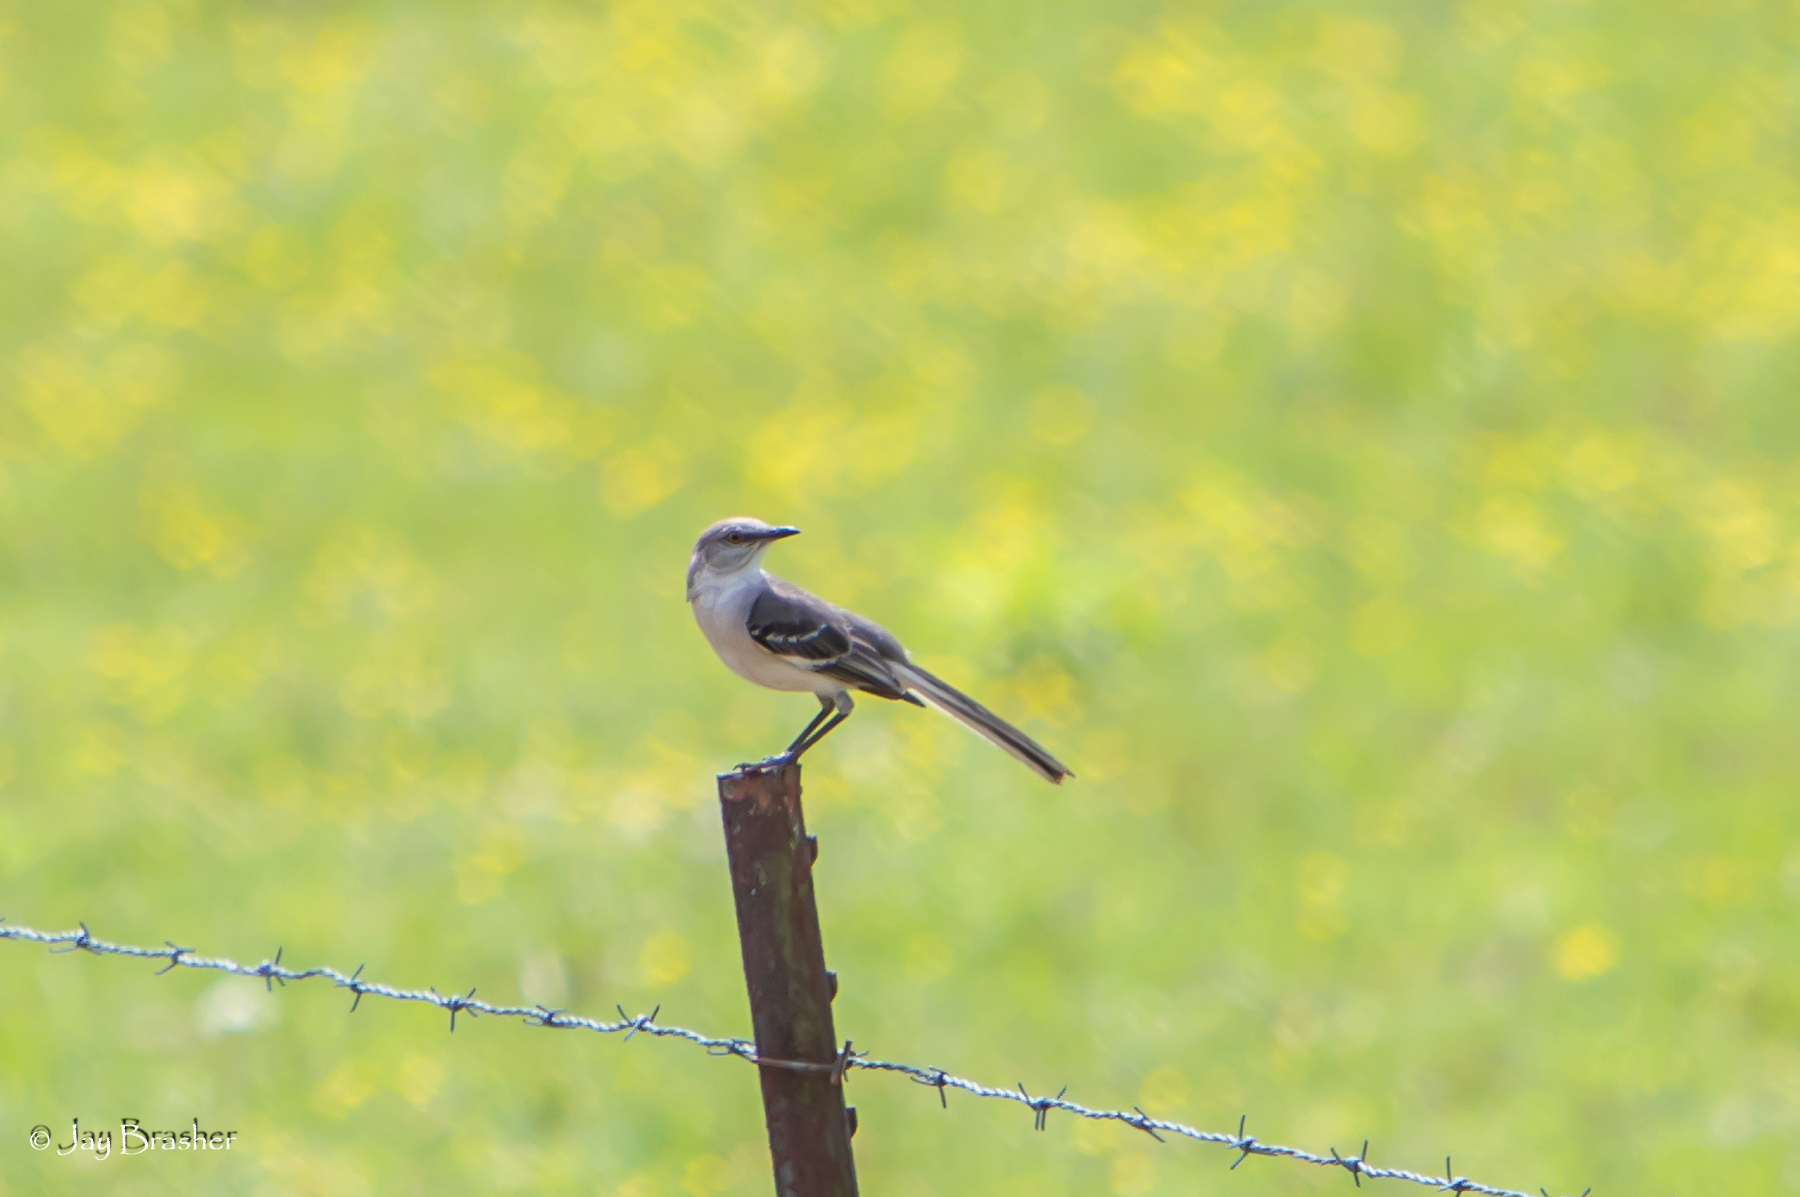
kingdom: Animalia
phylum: Chordata
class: Aves
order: Passeriformes
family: Mimidae
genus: Mimus
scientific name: Mimus polyglottos
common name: Northern mockingbird
